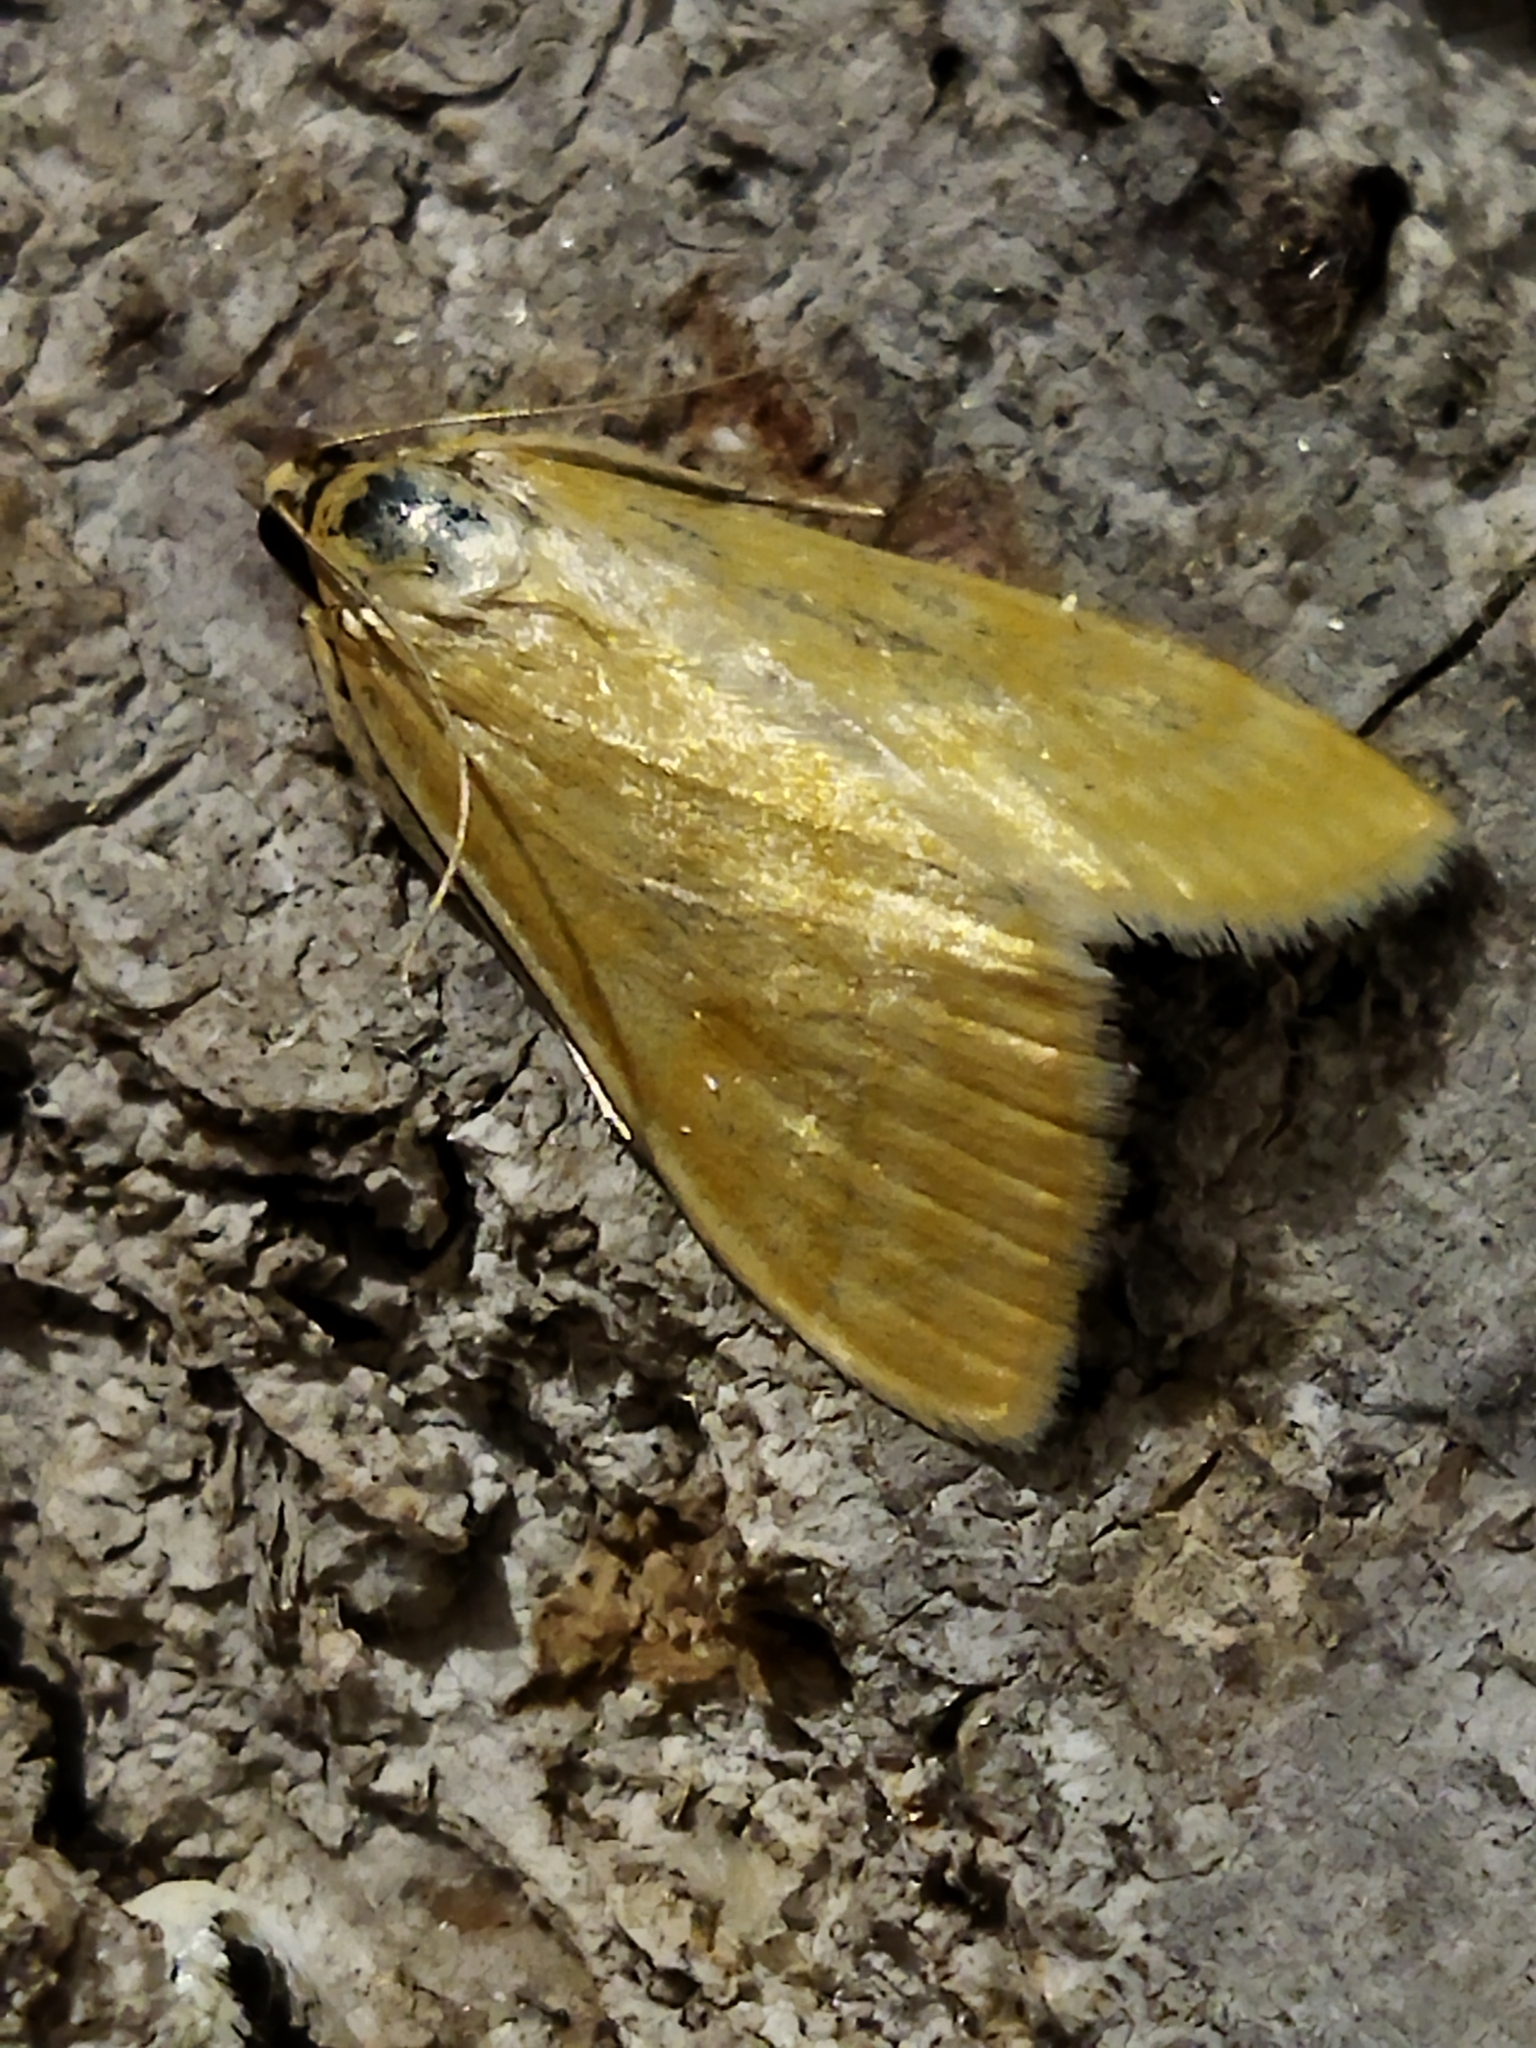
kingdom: Animalia
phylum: Arthropoda
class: Insecta
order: Lepidoptera
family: Crambidae
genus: Sitochroa
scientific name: Sitochroa verticalis
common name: Lesser pearl
